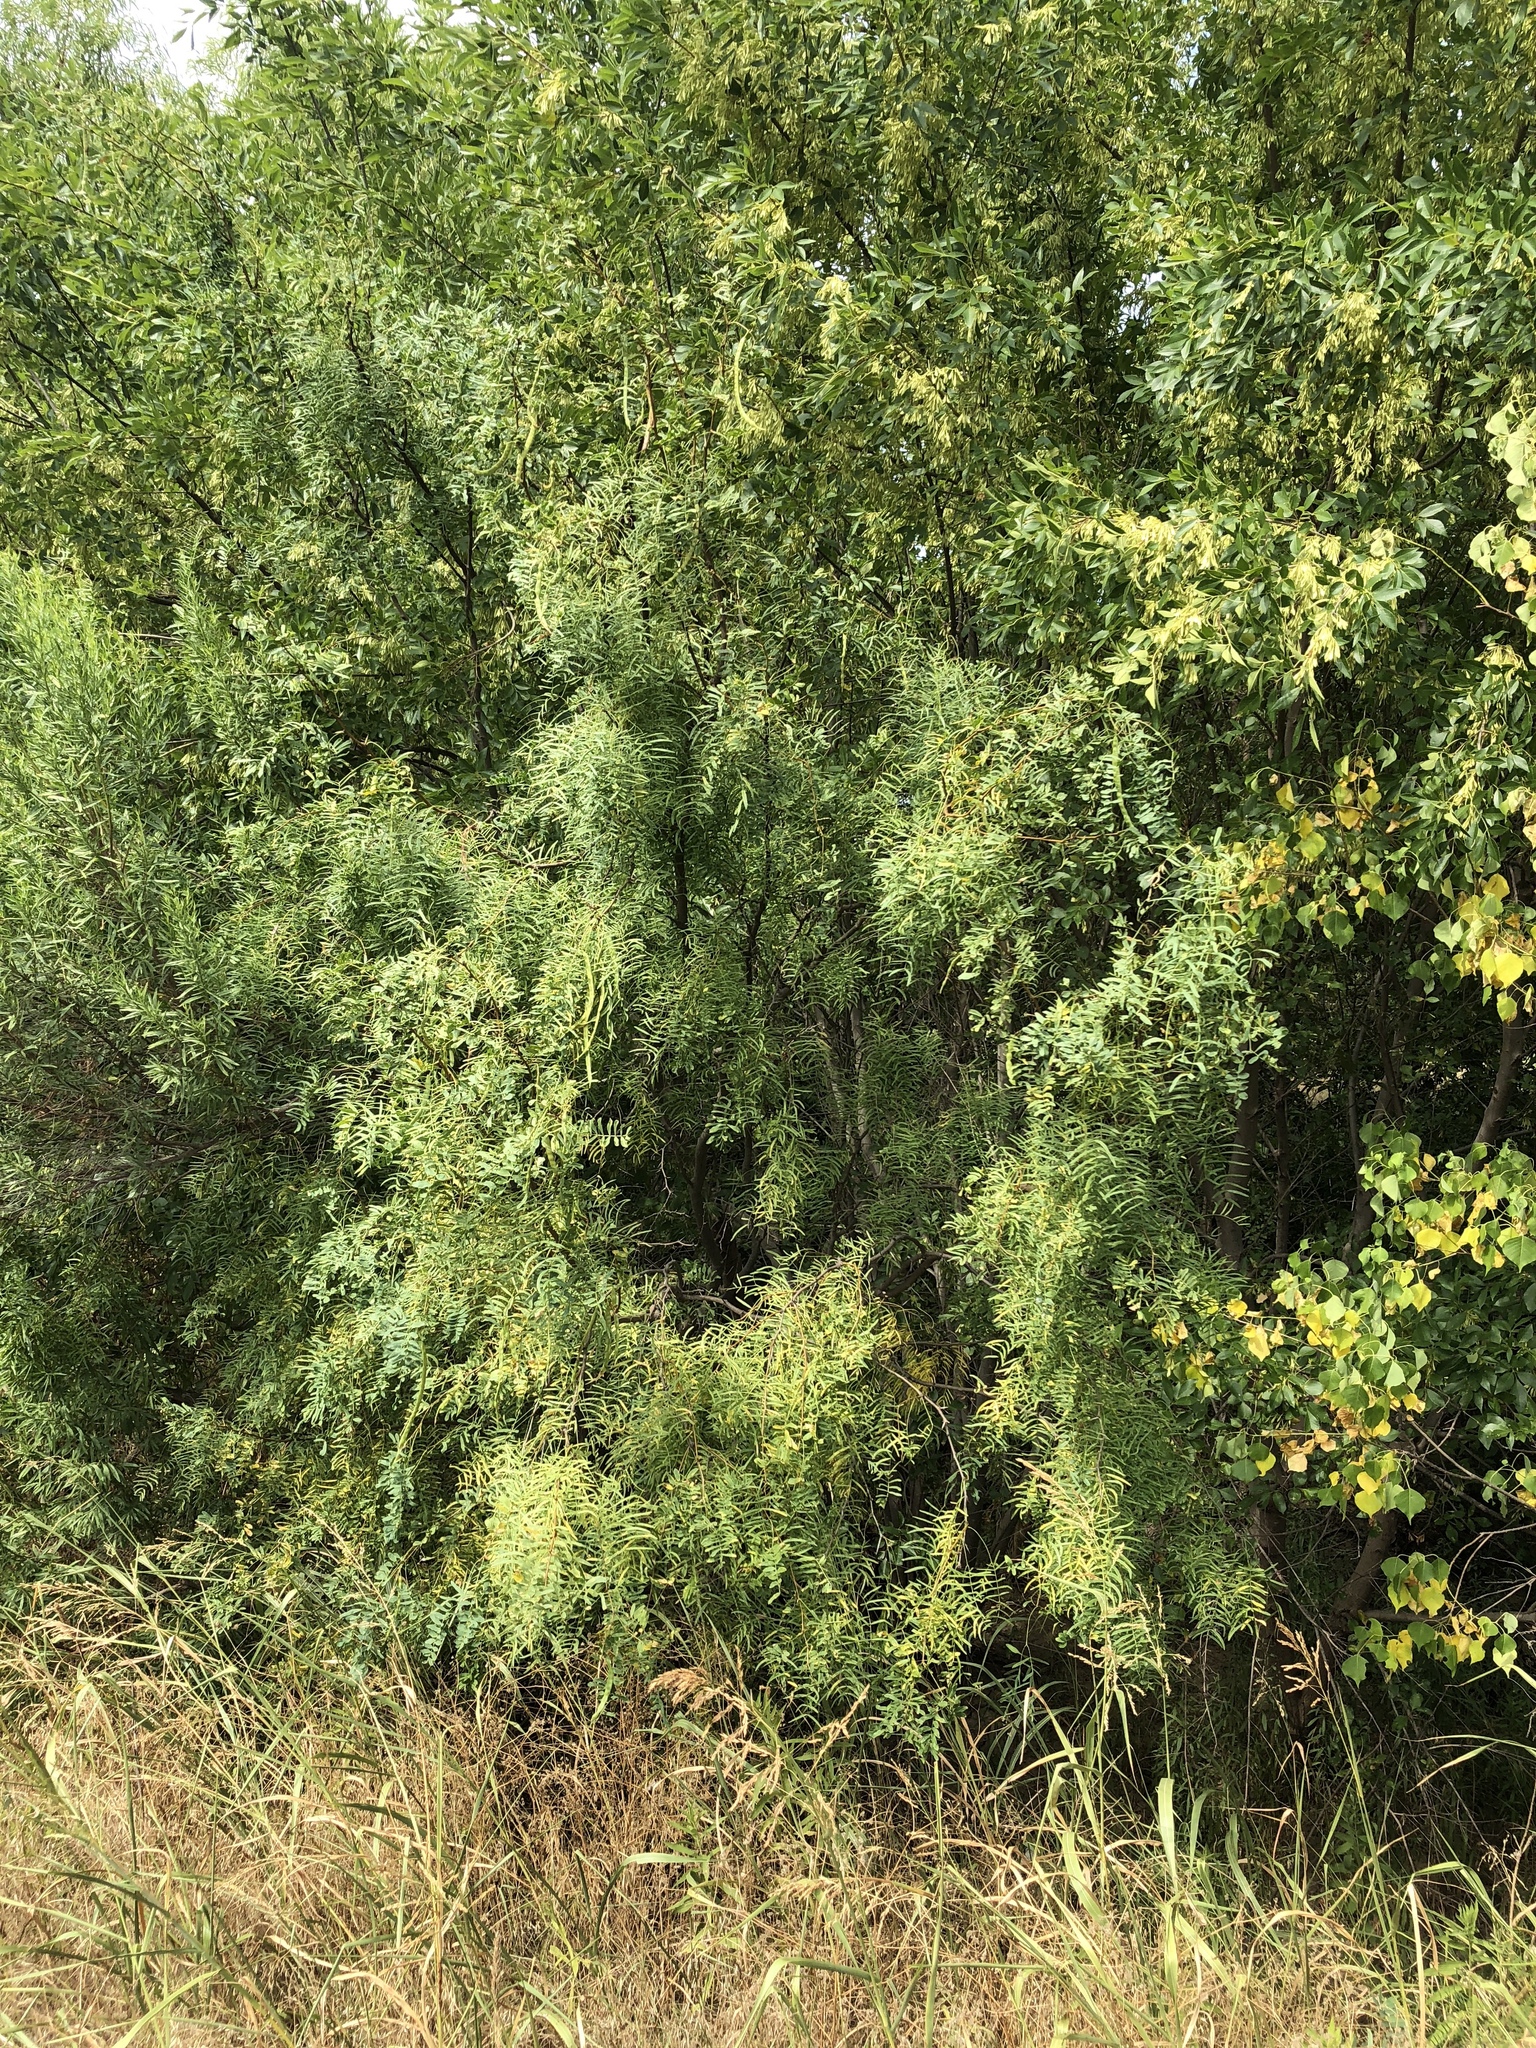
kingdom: Plantae
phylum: Tracheophyta
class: Magnoliopsida
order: Fabales
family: Fabaceae
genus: Prosopis
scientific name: Prosopis glandulosa
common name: Honey mesquite
